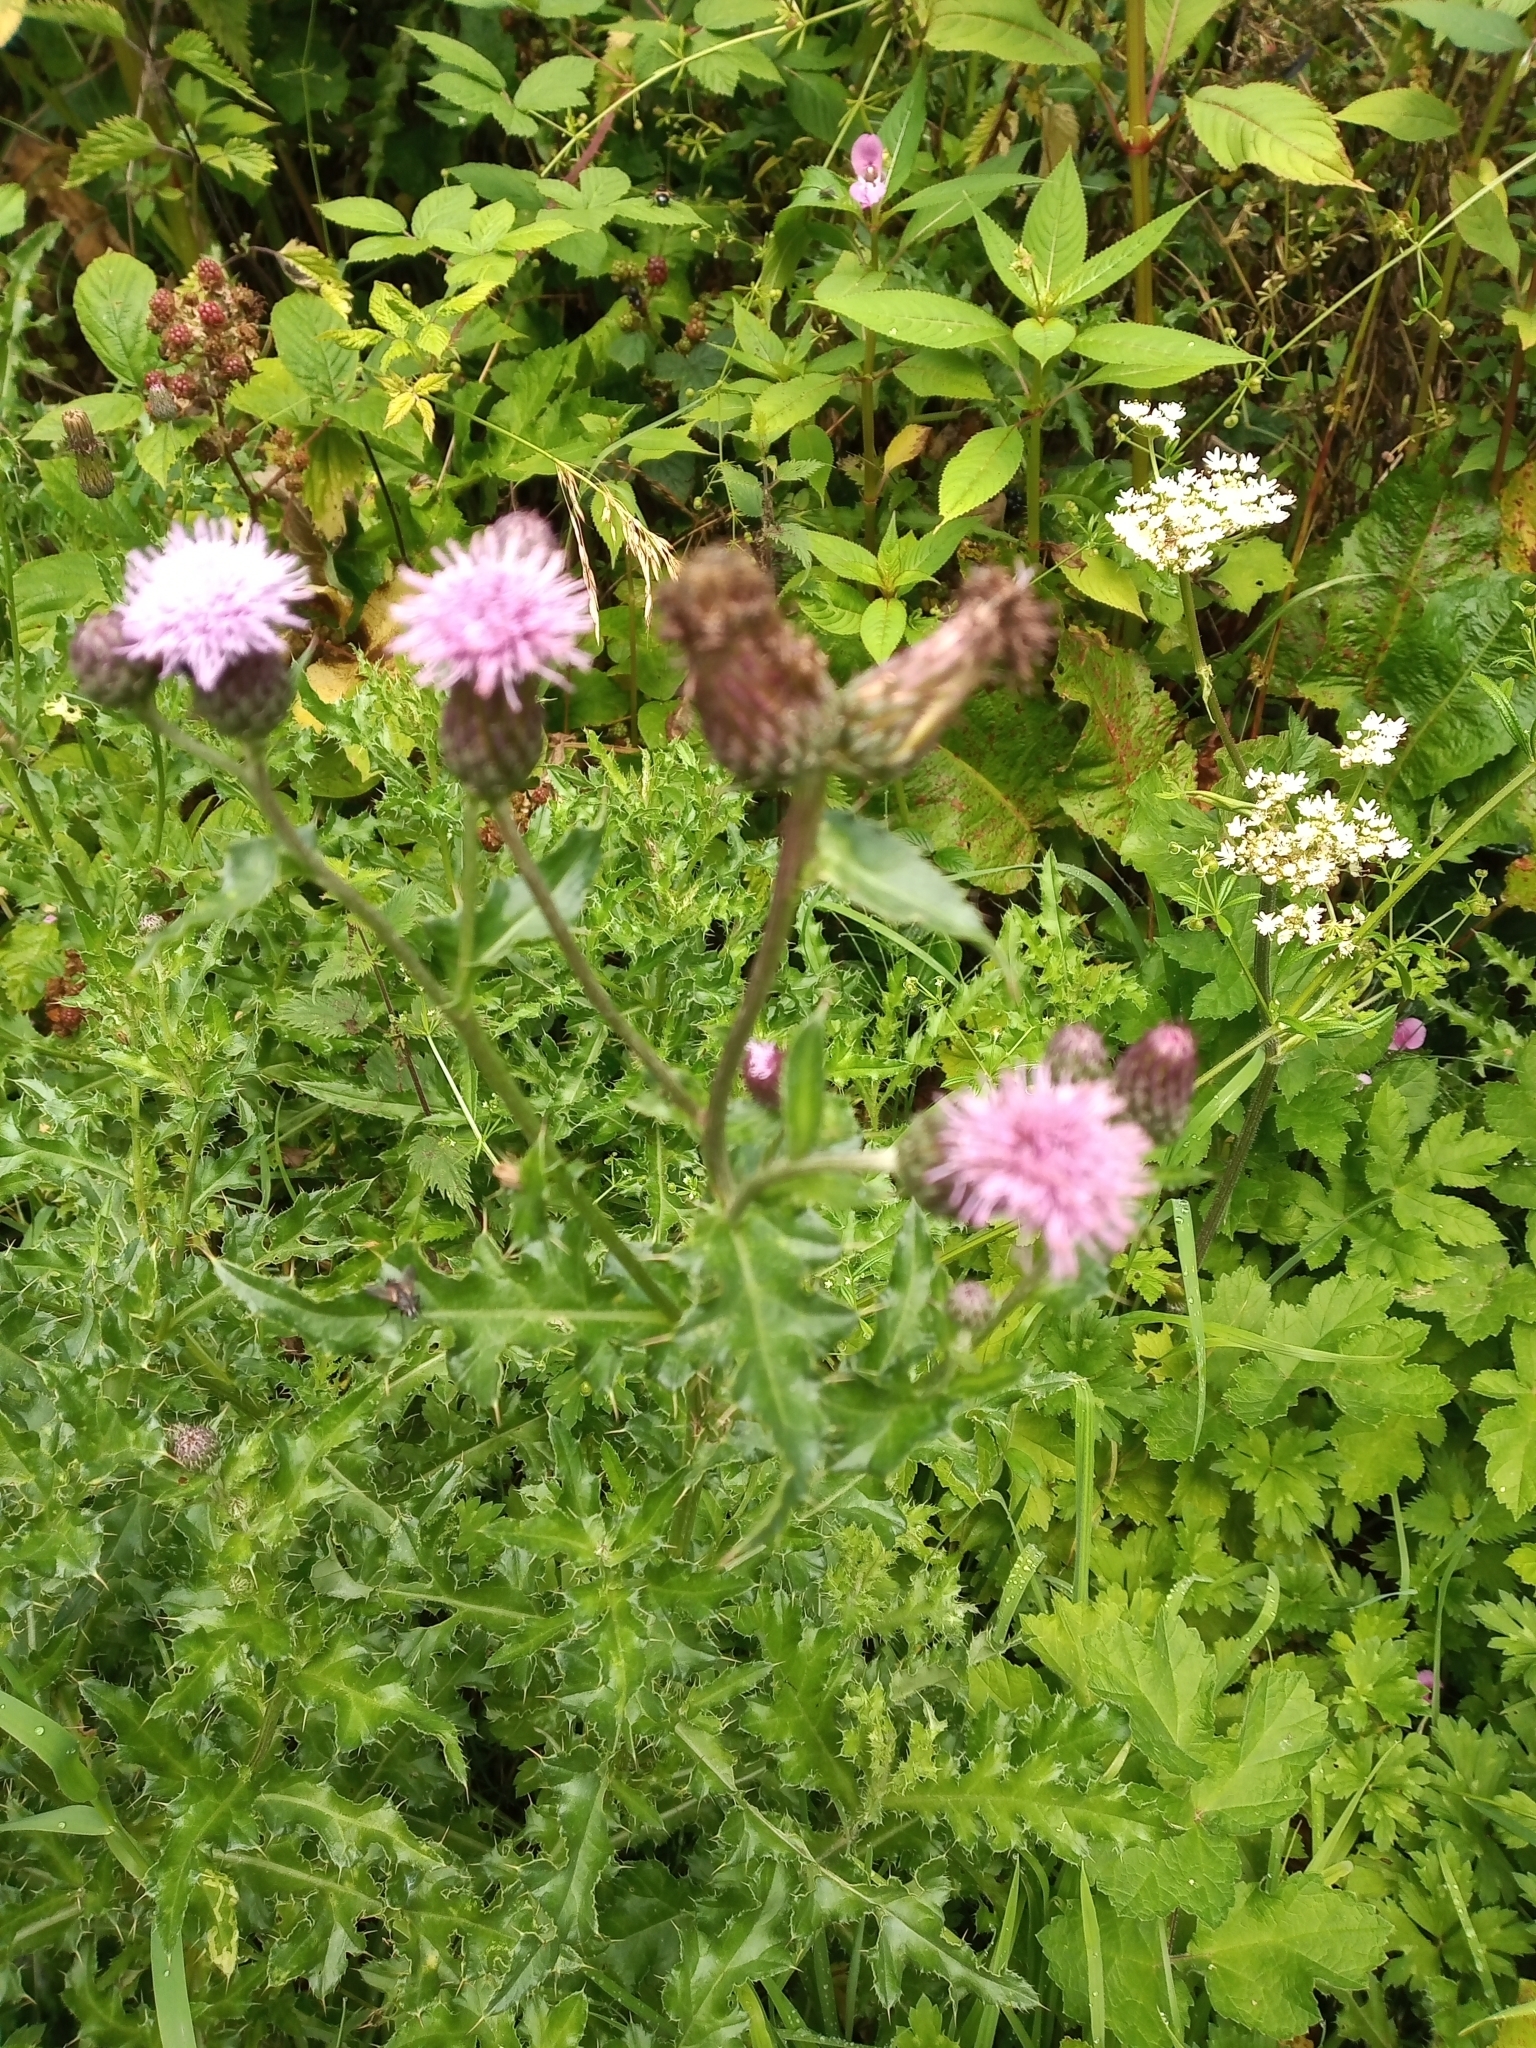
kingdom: Plantae
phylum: Tracheophyta
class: Magnoliopsida
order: Asterales
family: Asteraceae
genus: Cirsium
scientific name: Cirsium arvense
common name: Creeping thistle
